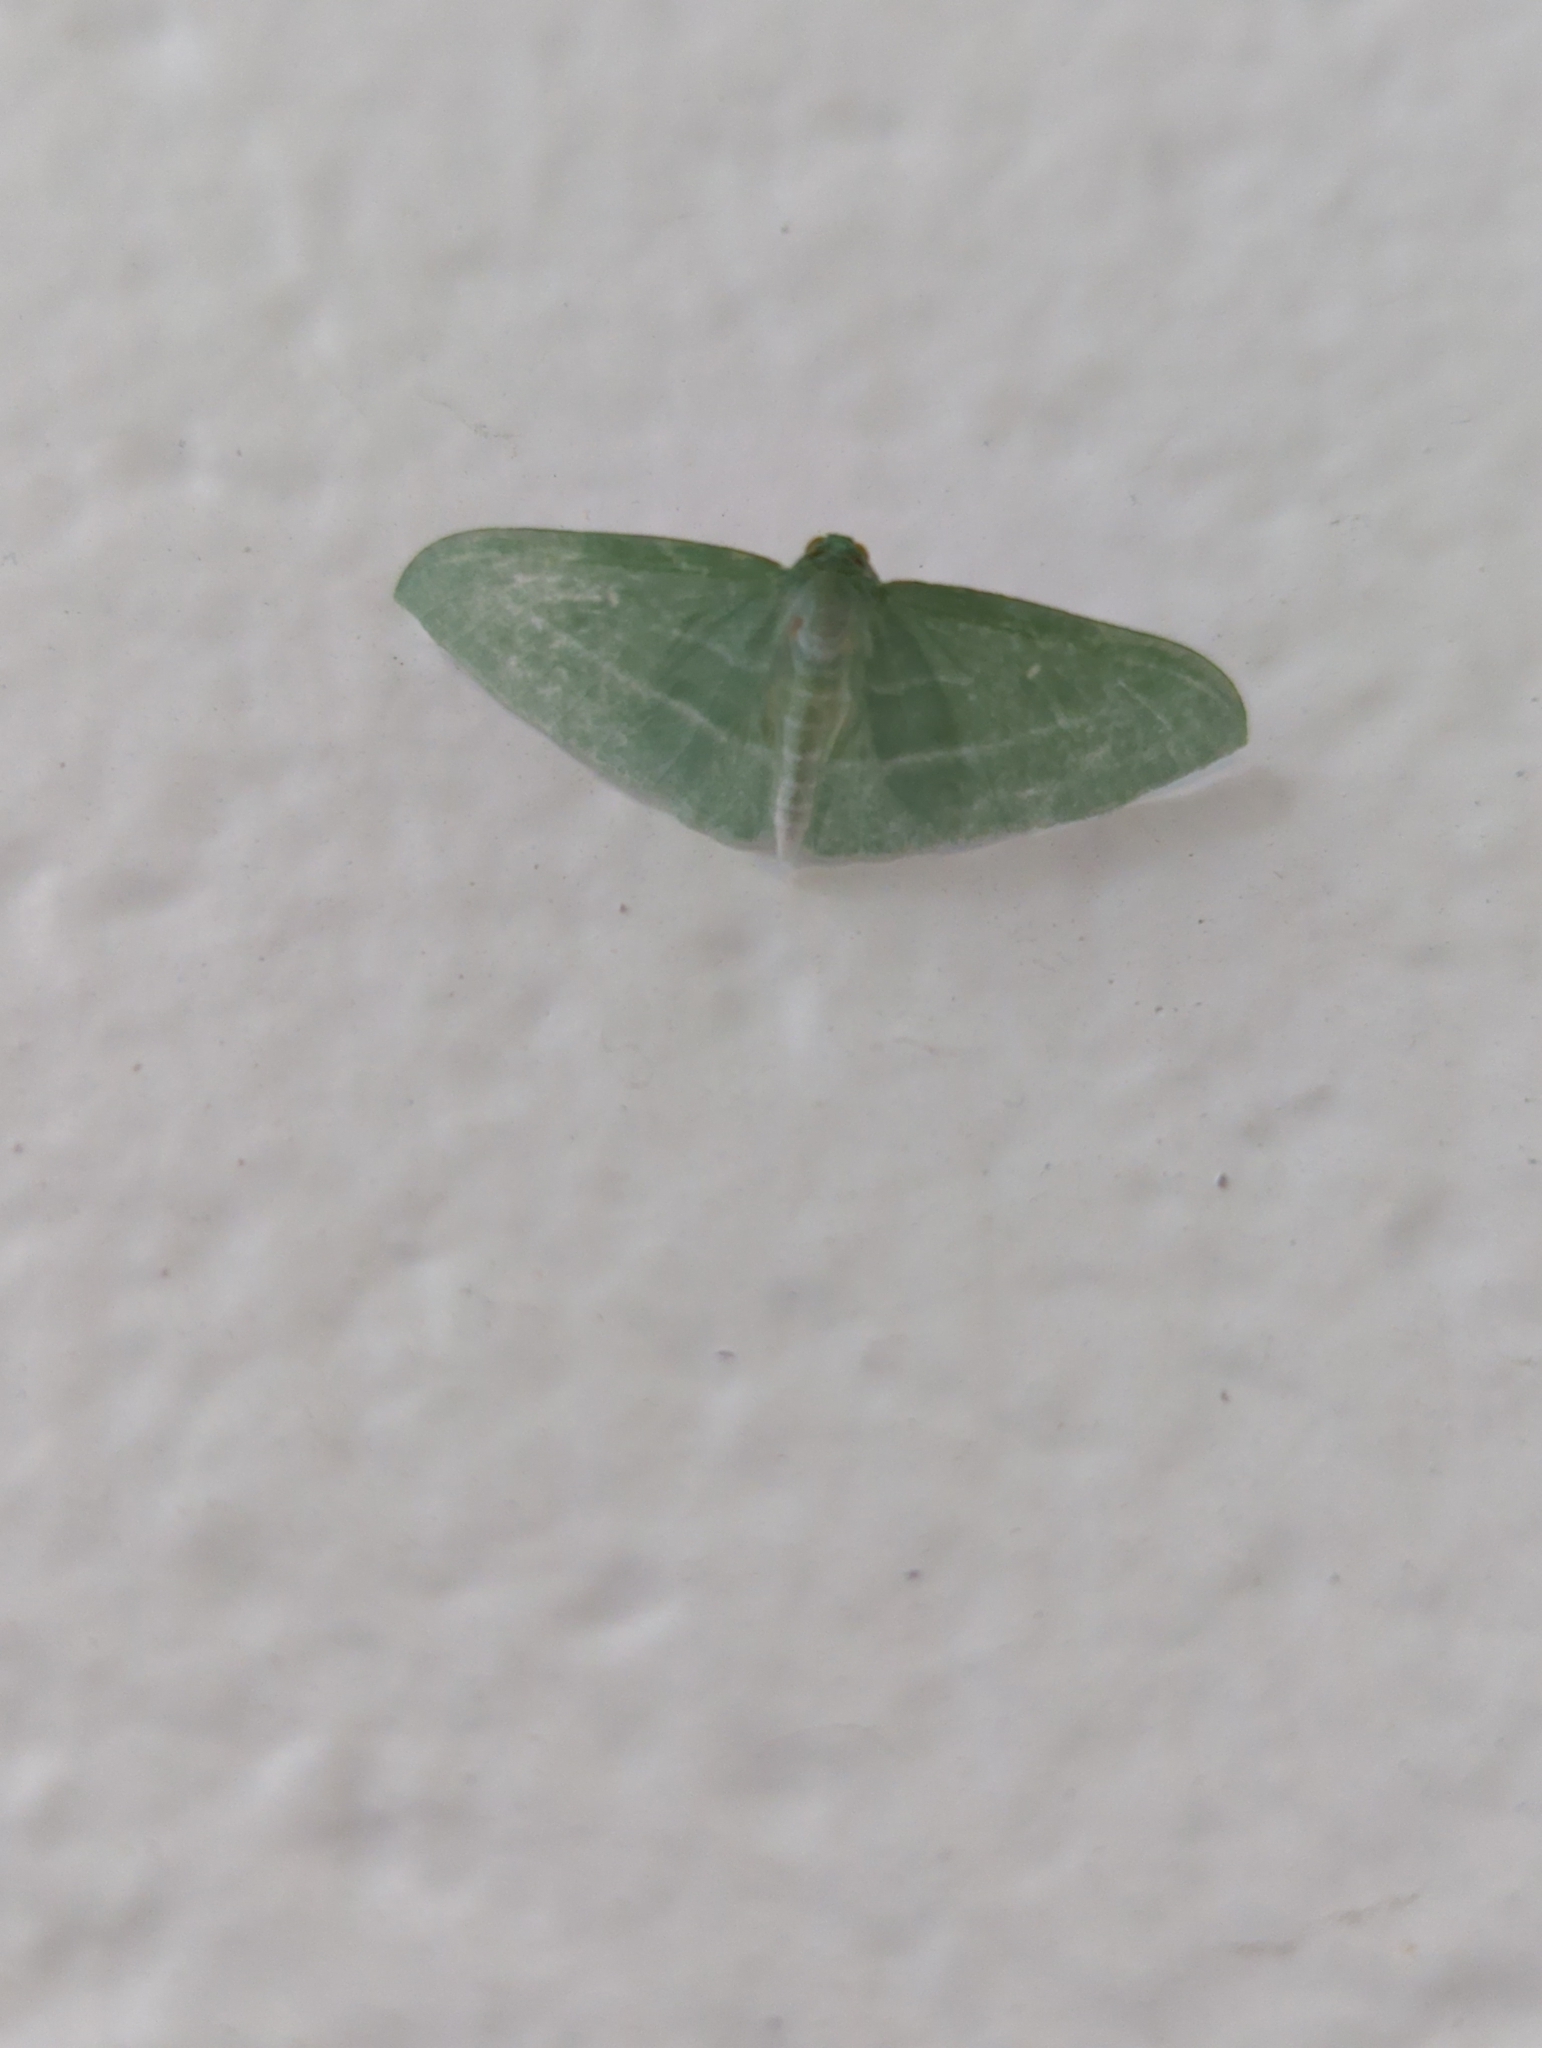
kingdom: Animalia
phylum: Arthropoda
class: Insecta
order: Lepidoptera
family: Geometridae
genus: Dyspteris
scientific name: Dyspteris abortivaria
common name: Bad-wing
